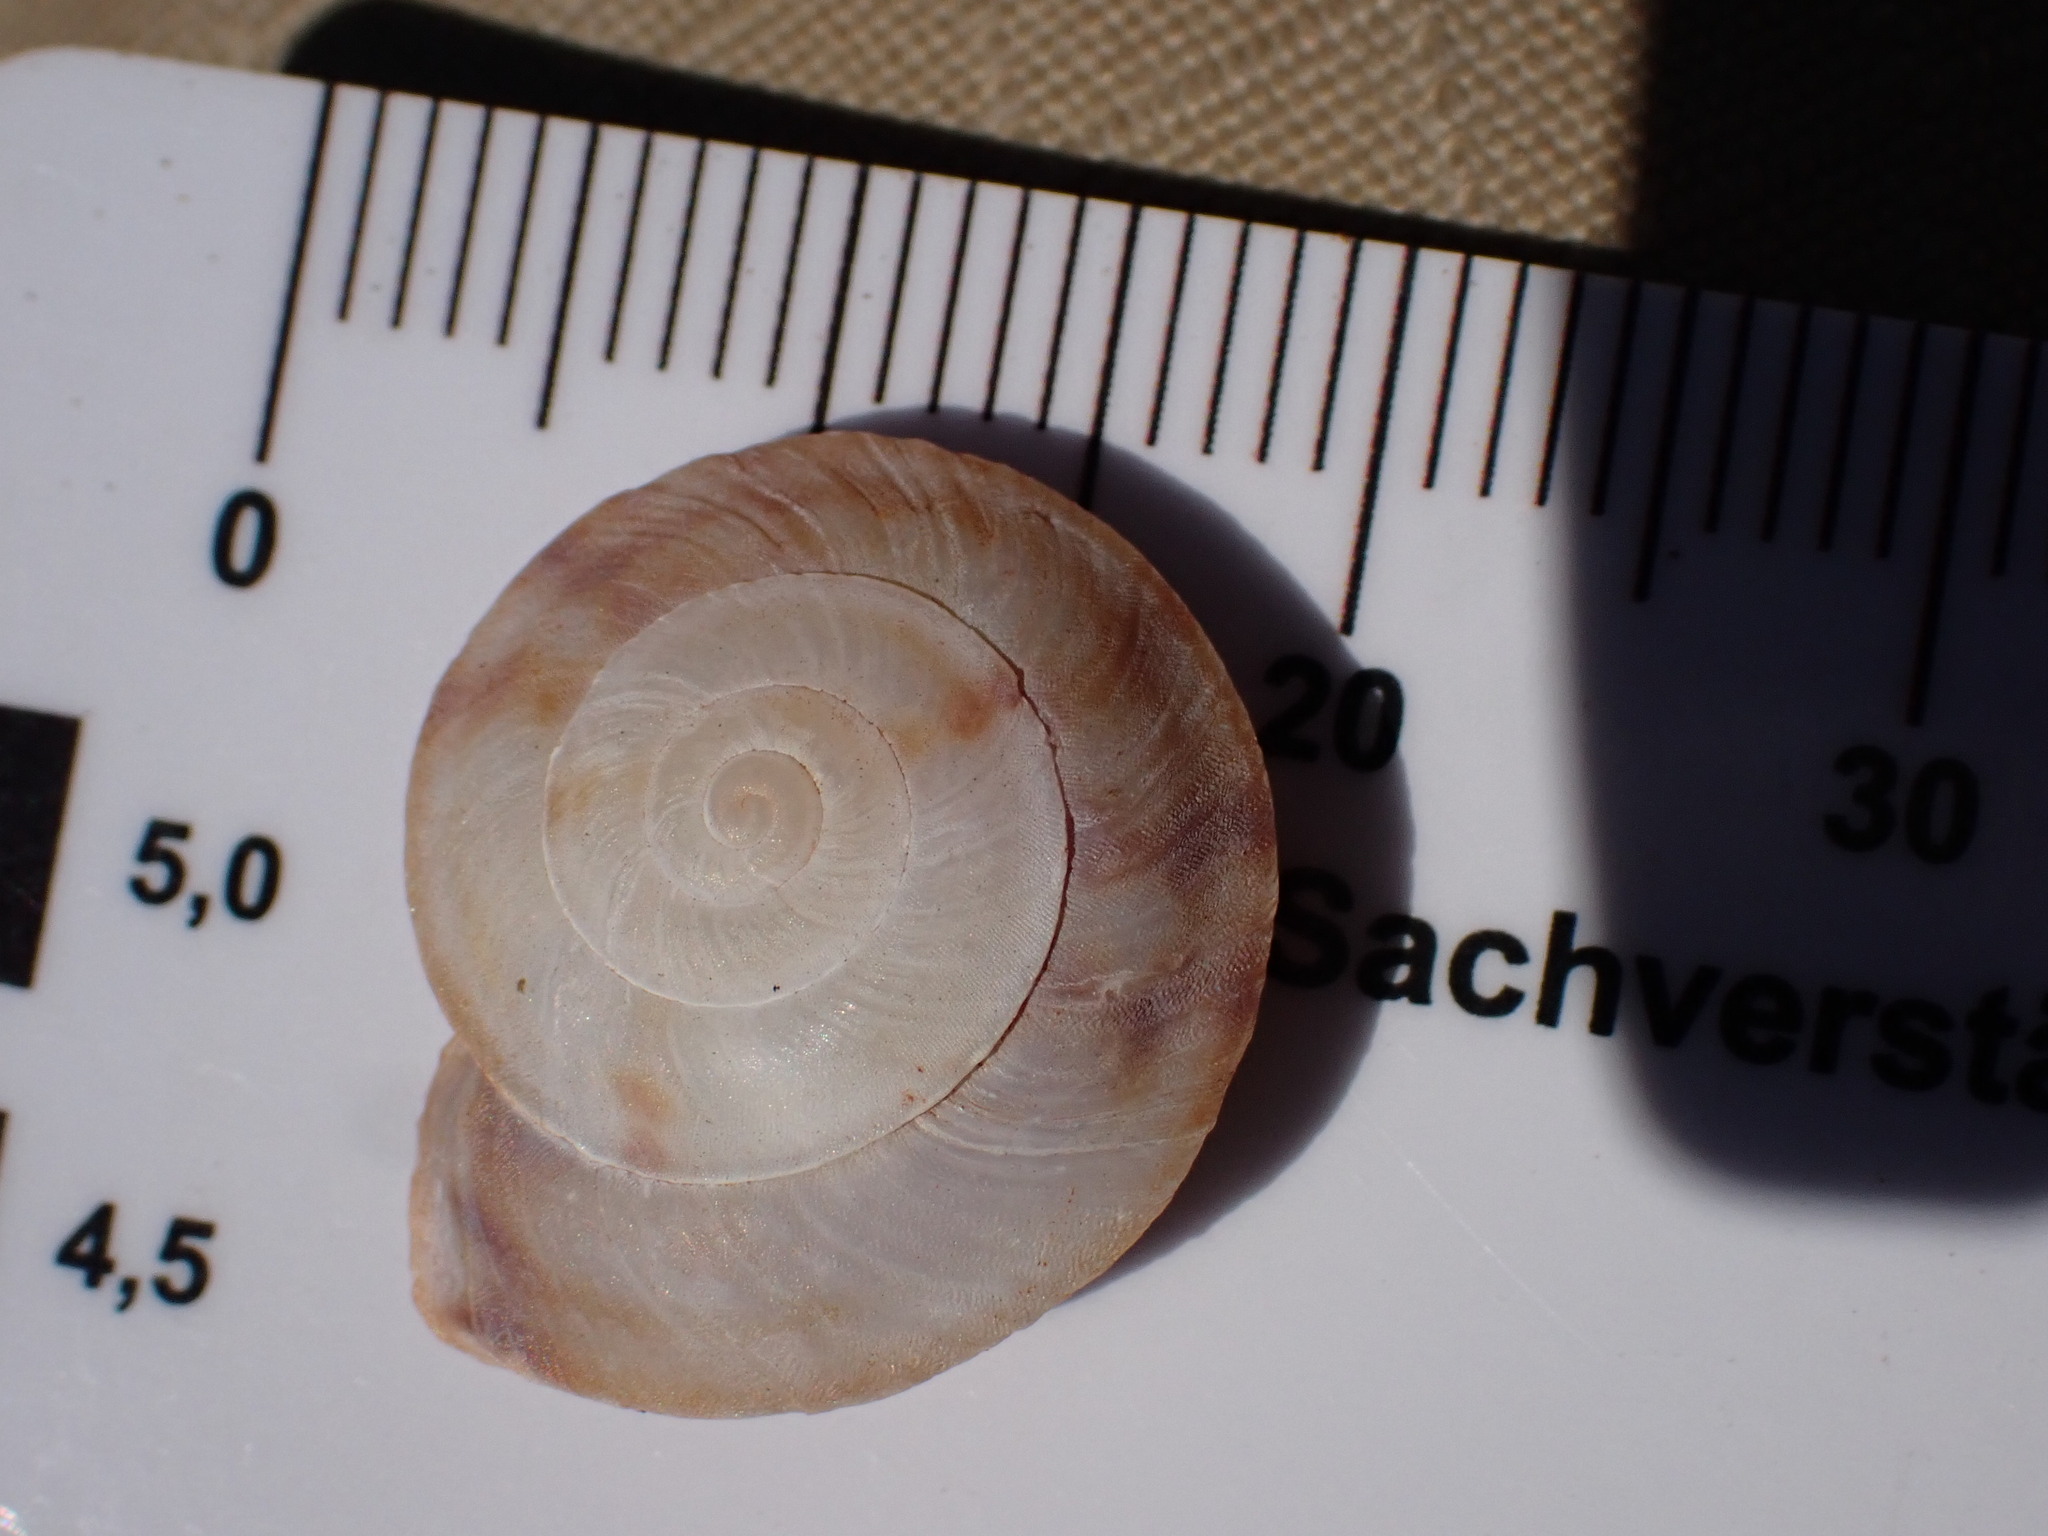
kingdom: Animalia
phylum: Mollusca
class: Gastropoda
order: Stylommatophora
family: Helicidae
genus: Helicigona
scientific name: Helicigona lapicida
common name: Lapidary snail
